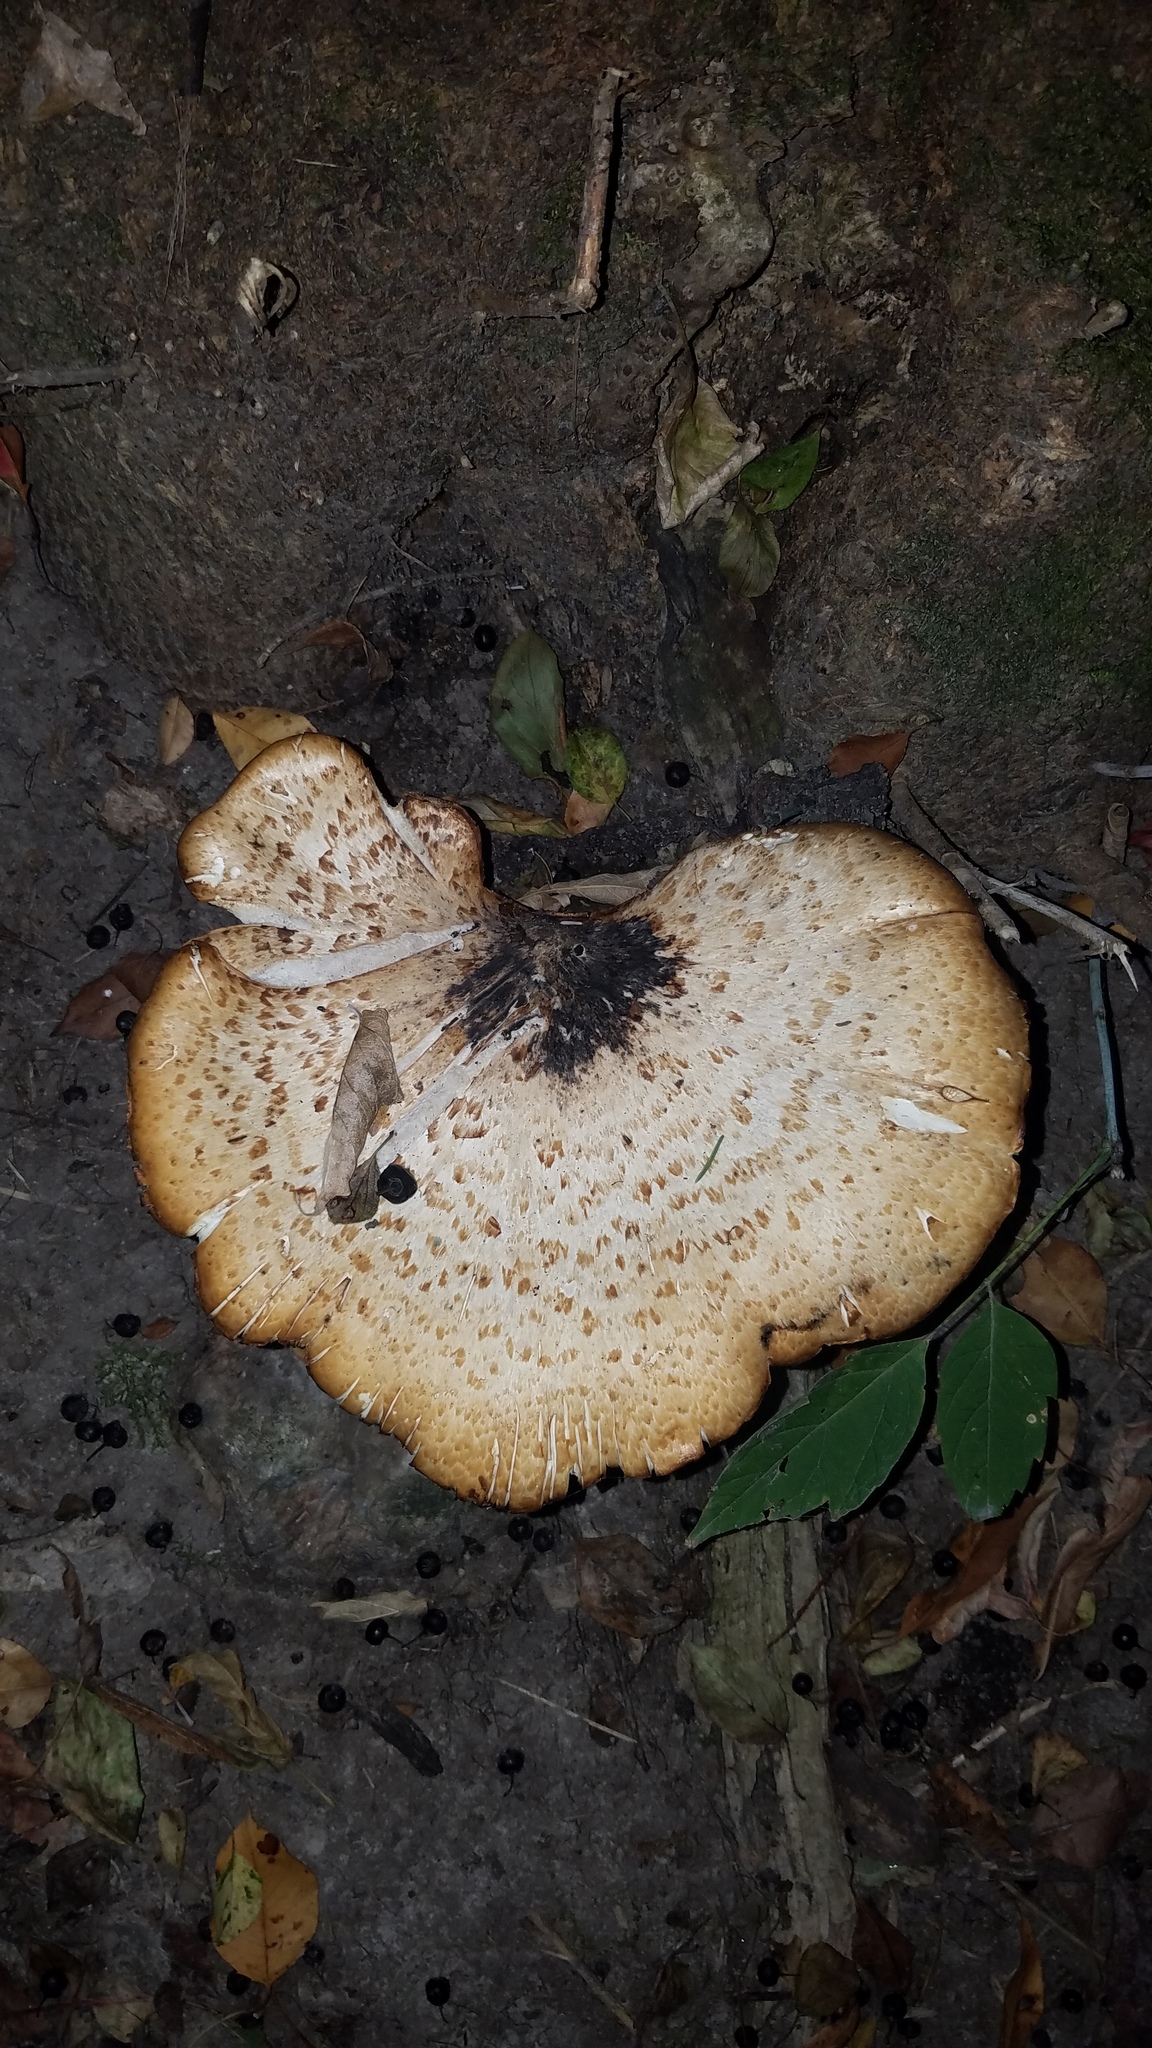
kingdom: Fungi
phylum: Basidiomycota
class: Agaricomycetes
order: Polyporales
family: Polyporaceae
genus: Cerioporus
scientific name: Cerioporus squamosus
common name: Dryad's saddle
